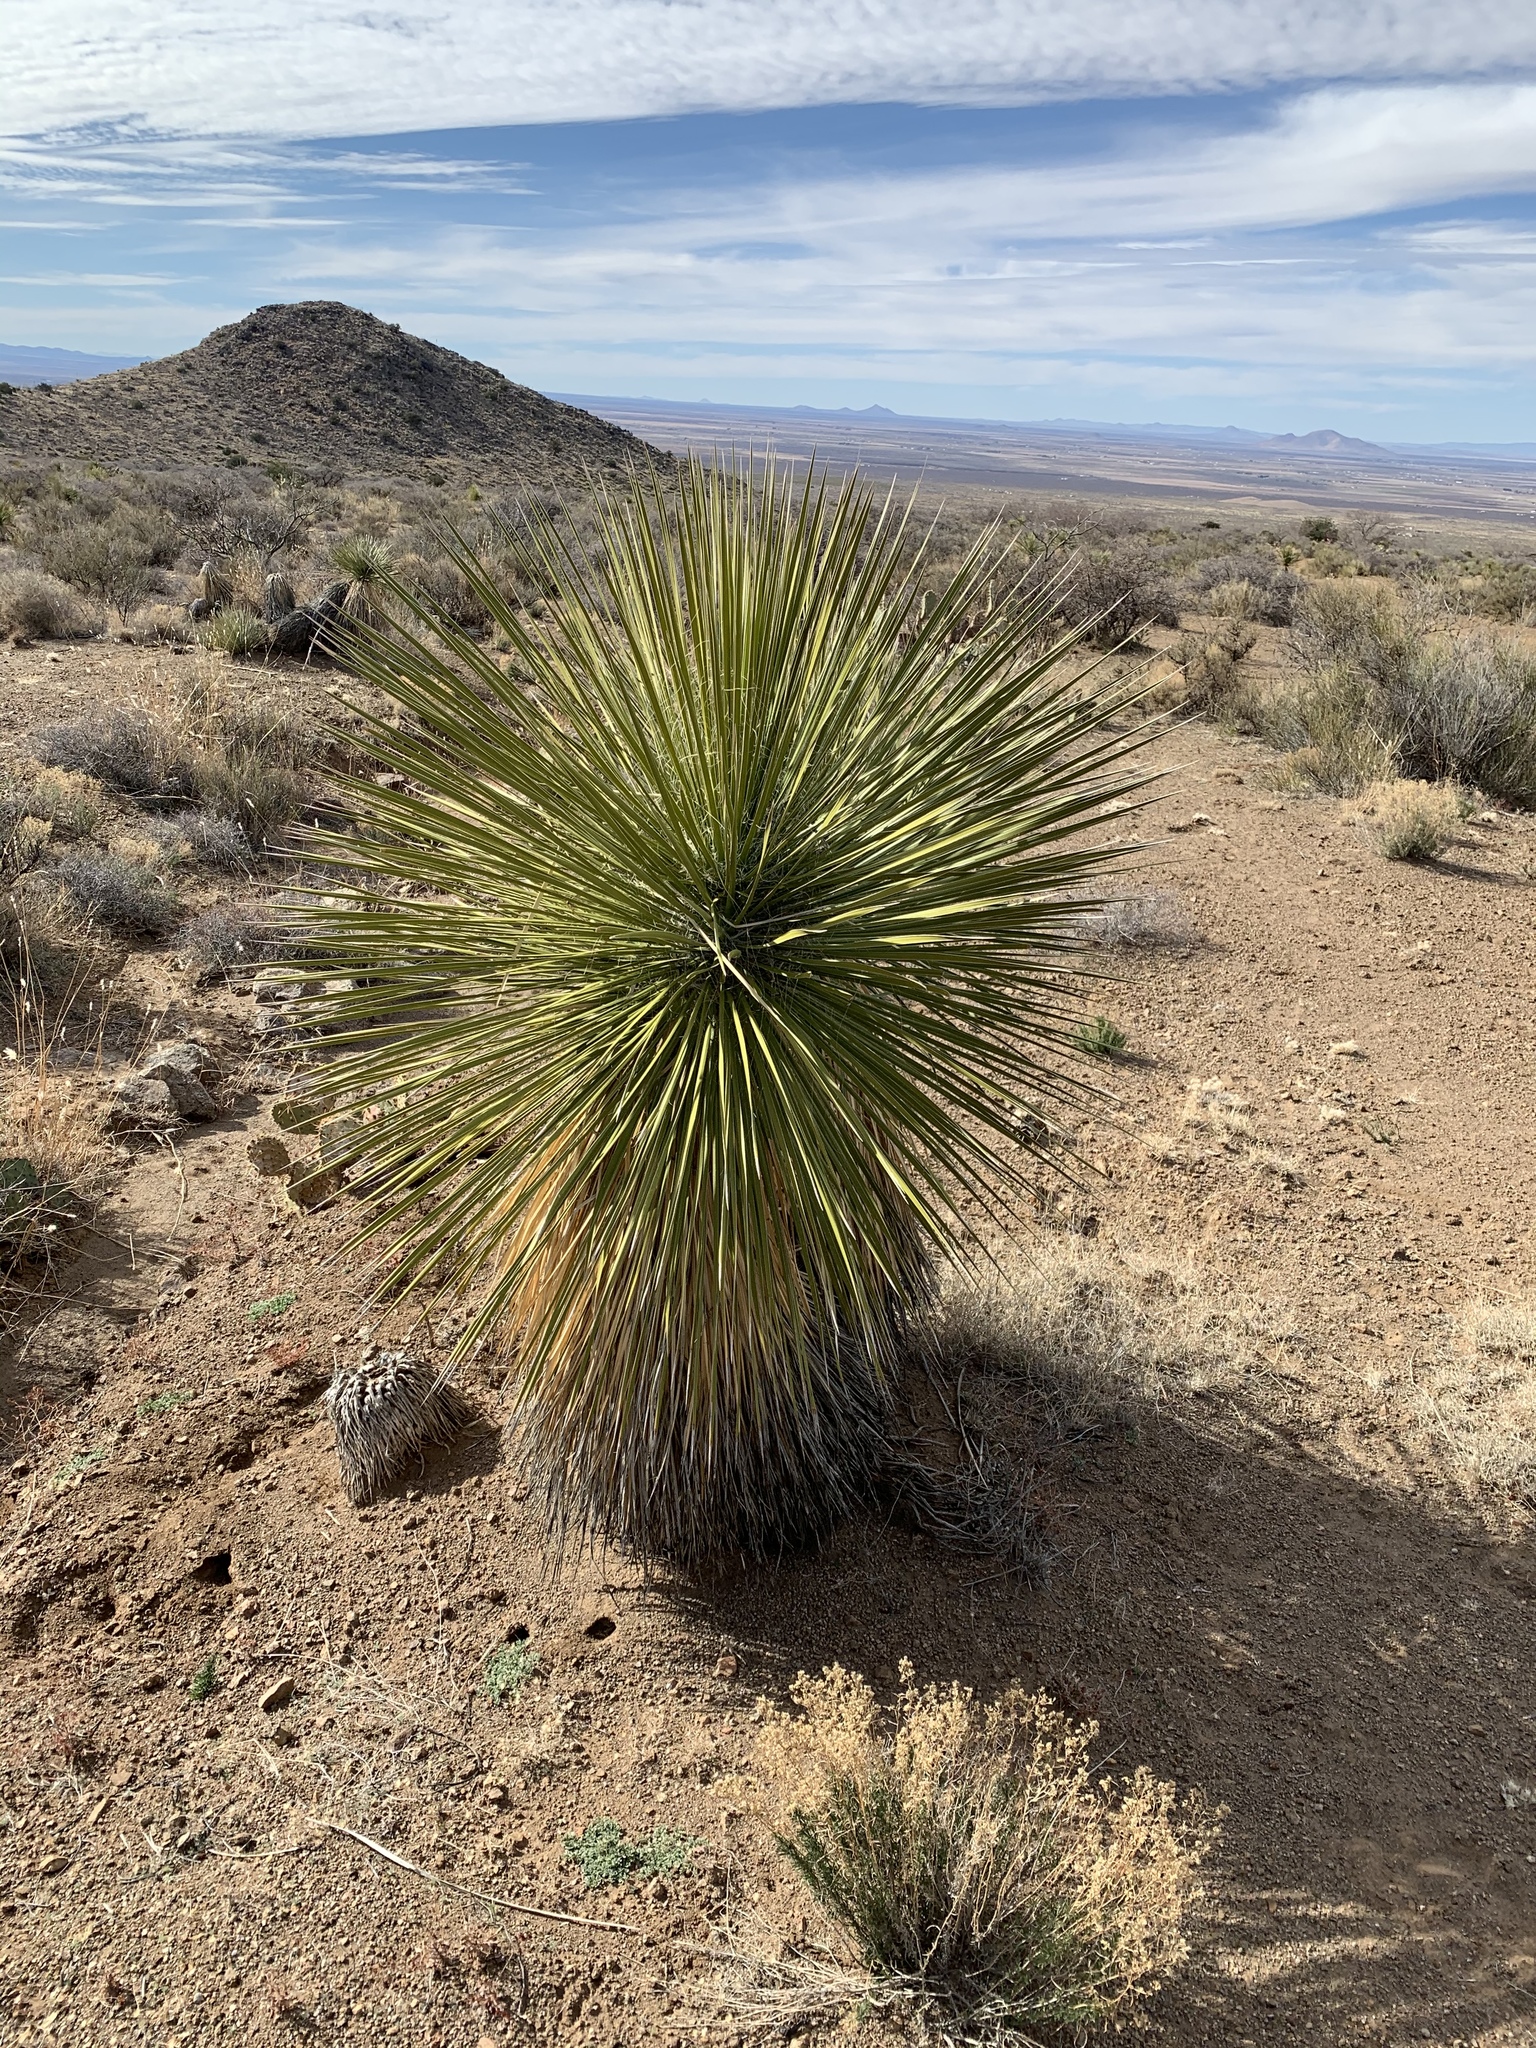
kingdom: Plantae
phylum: Tracheophyta
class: Liliopsida
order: Asparagales
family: Asparagaceae
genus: Yucca
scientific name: Yucca elata
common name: Palmella
